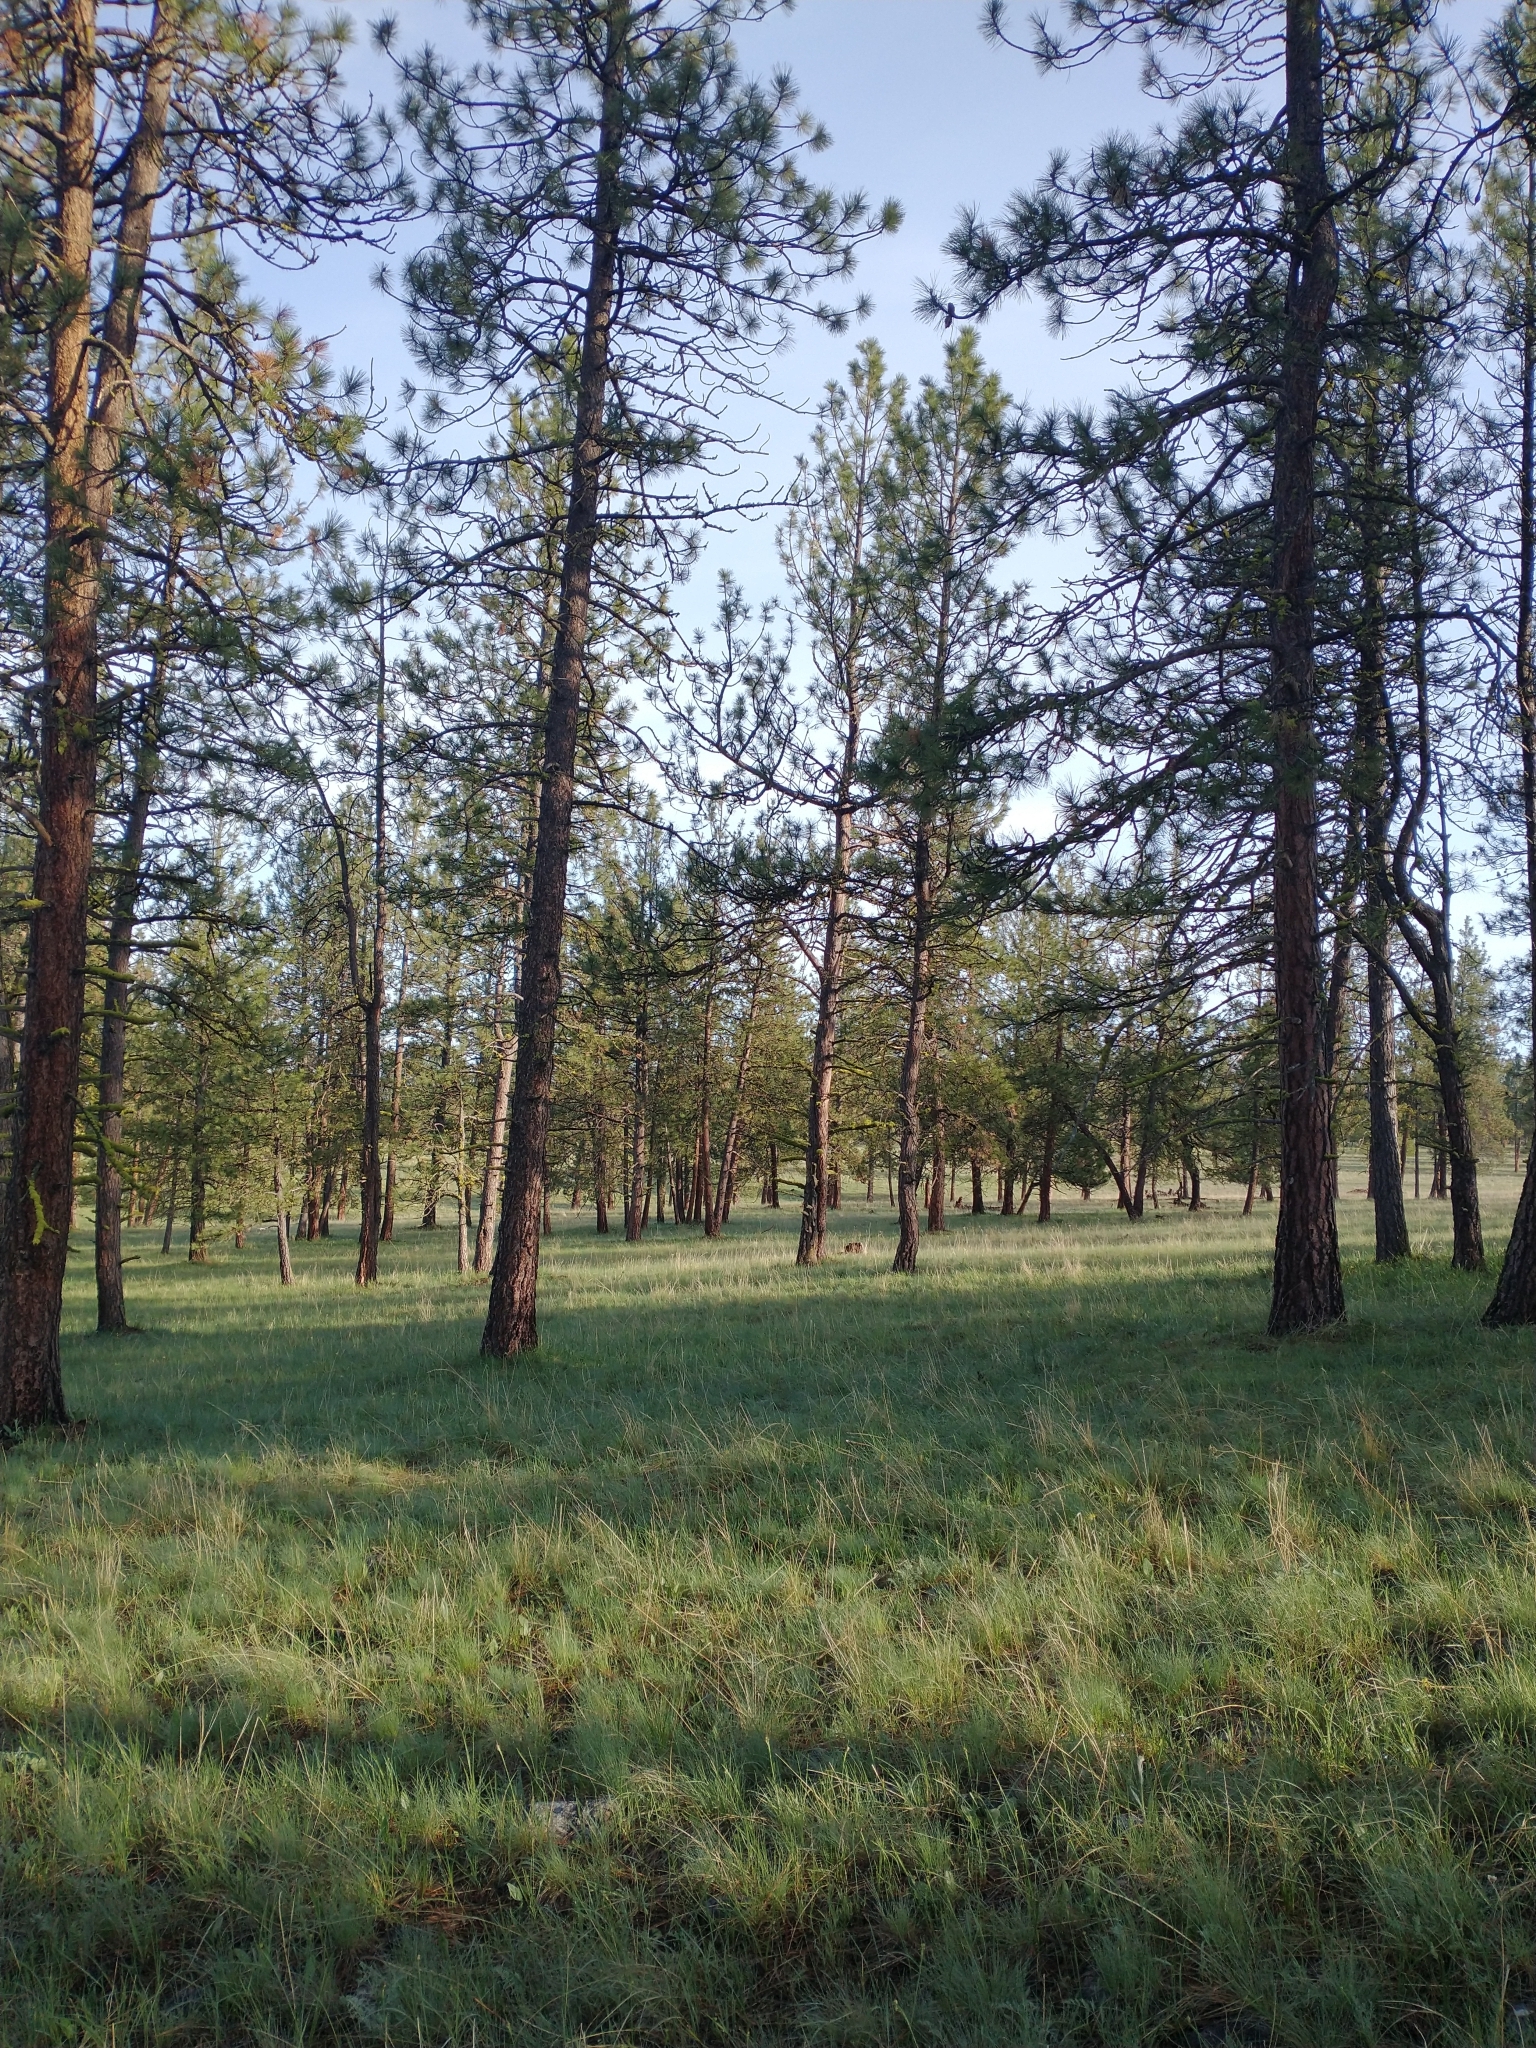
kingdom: Plantae
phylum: Tracheophyta
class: Pinopsida
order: Pinales
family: Pinaceae
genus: Pinus
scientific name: Pinus ponderosa
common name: Western yellow-pine
